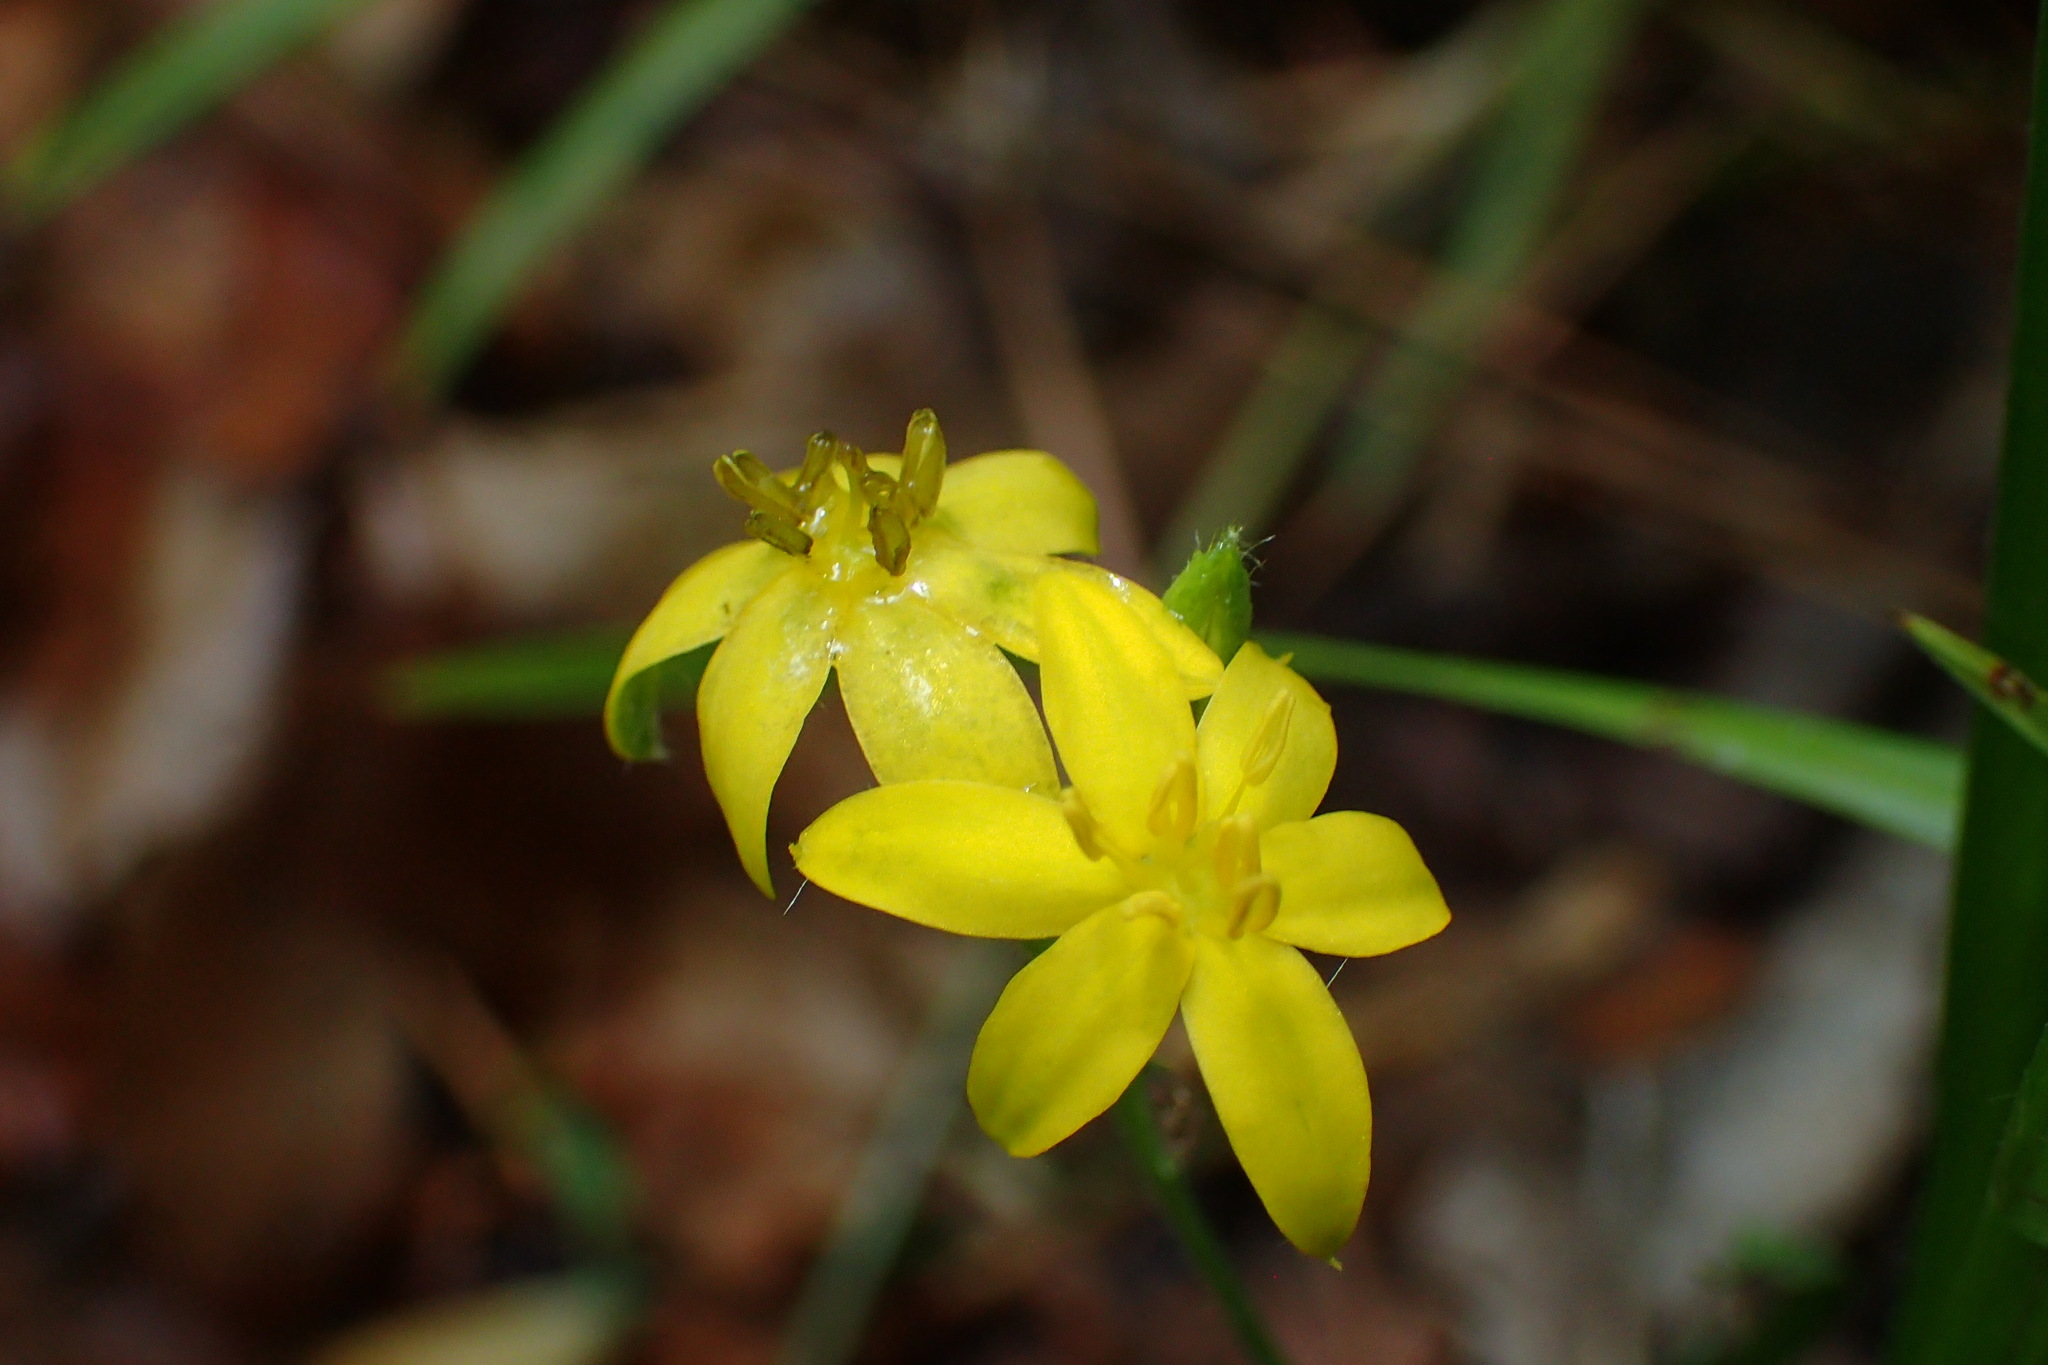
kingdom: Plantae
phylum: Tracheophyta
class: Liliopsida
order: Asparagales
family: Hypoxidaceae
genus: Hypoxis
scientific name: Hypoxis hirsuta
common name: Common goldstar
